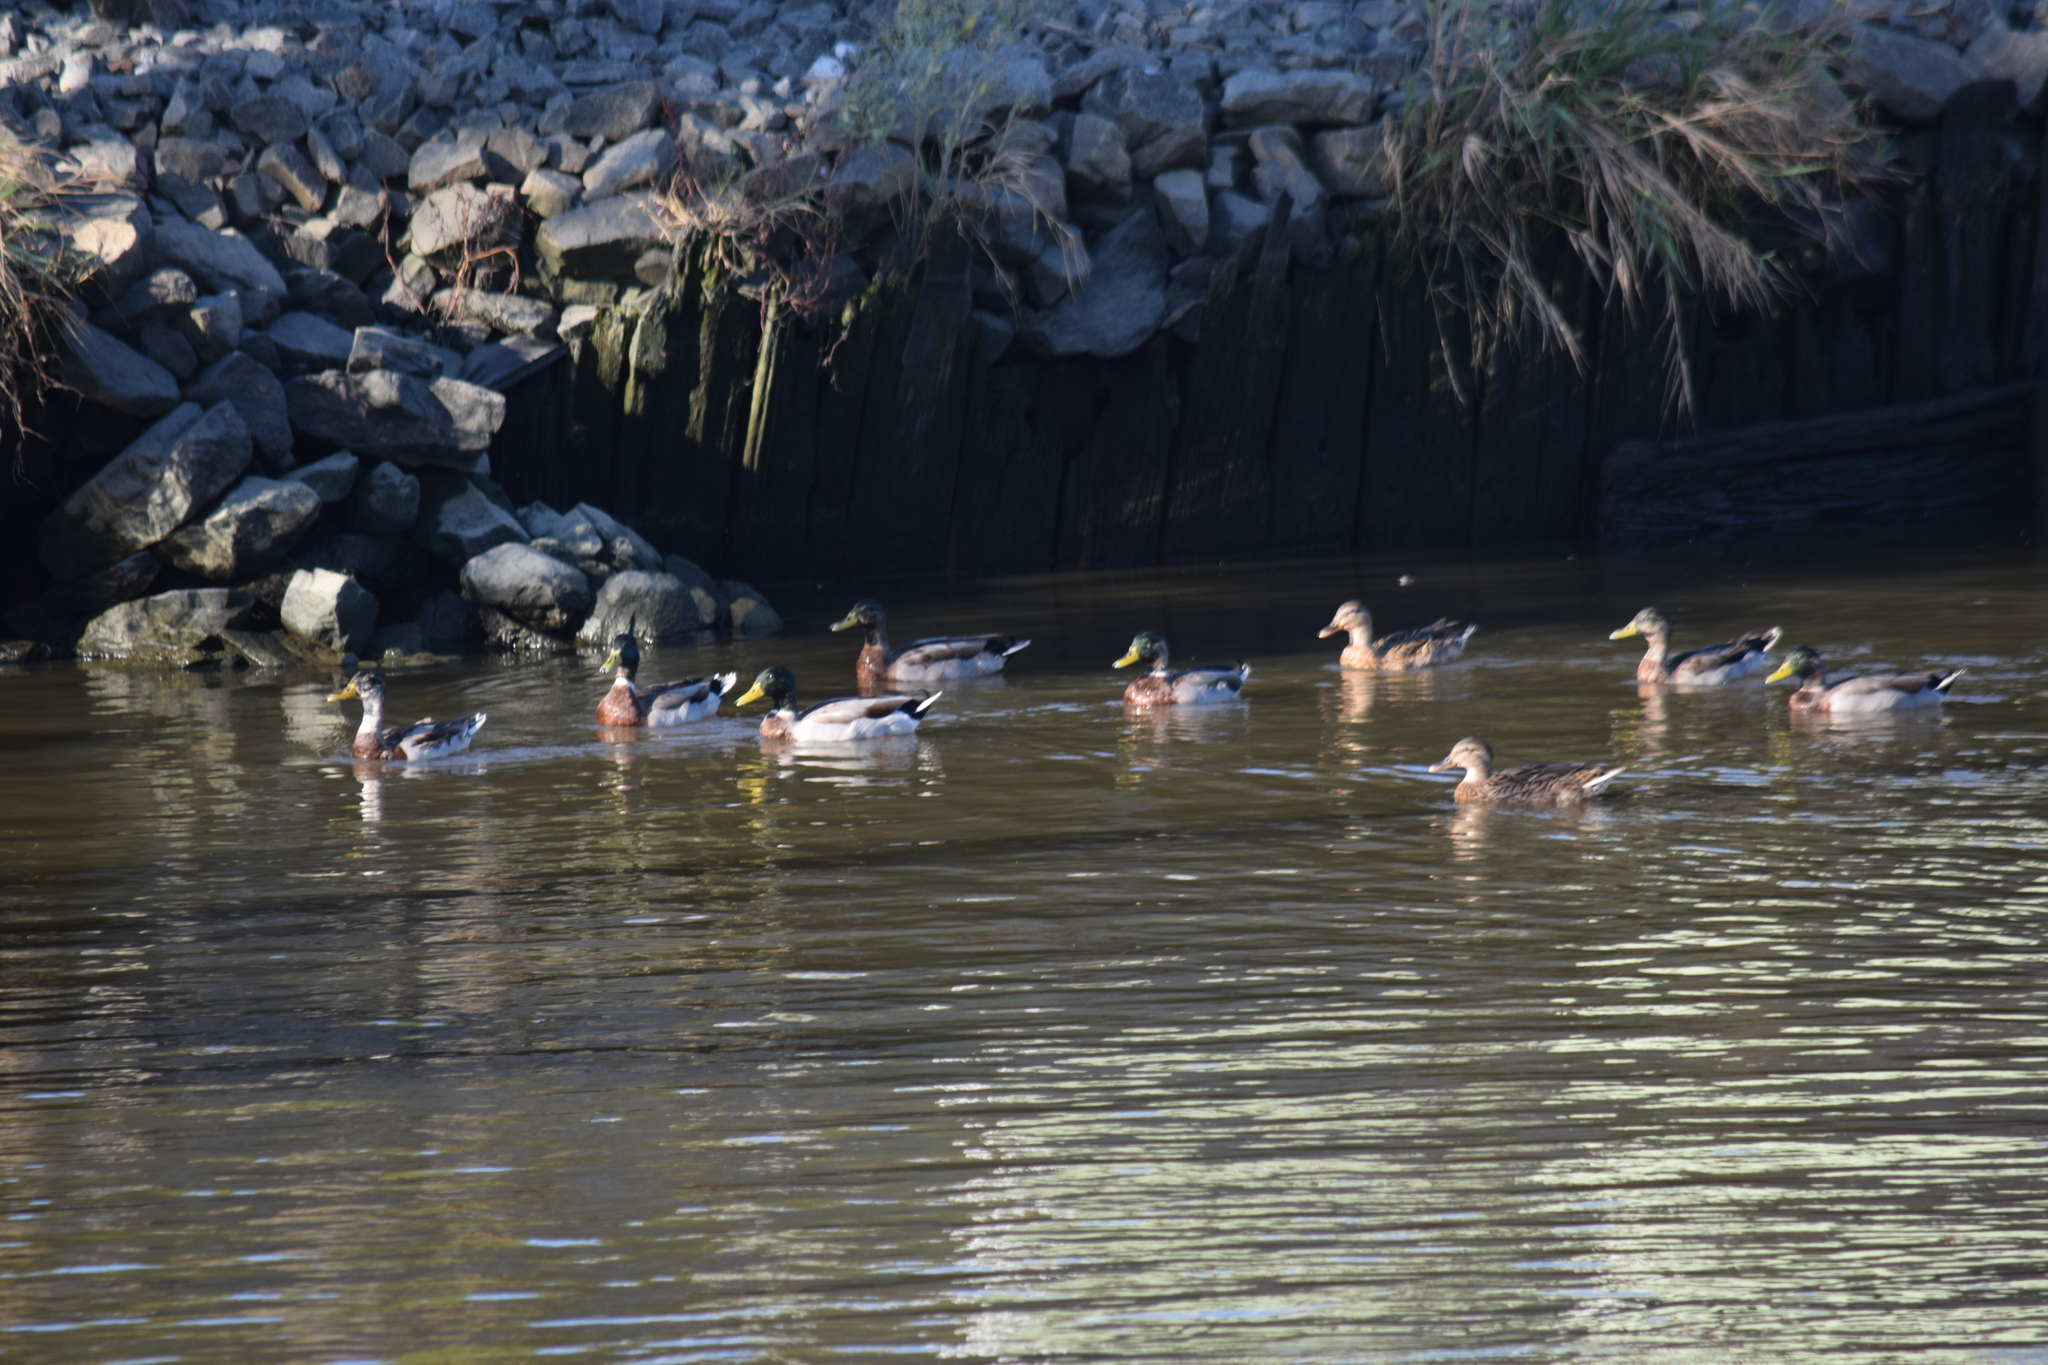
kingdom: Animalia
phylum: Chordata
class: Aves
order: Anseriformes
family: Anatidae
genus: Anas
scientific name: Anas platyrhynchos
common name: Mallard
